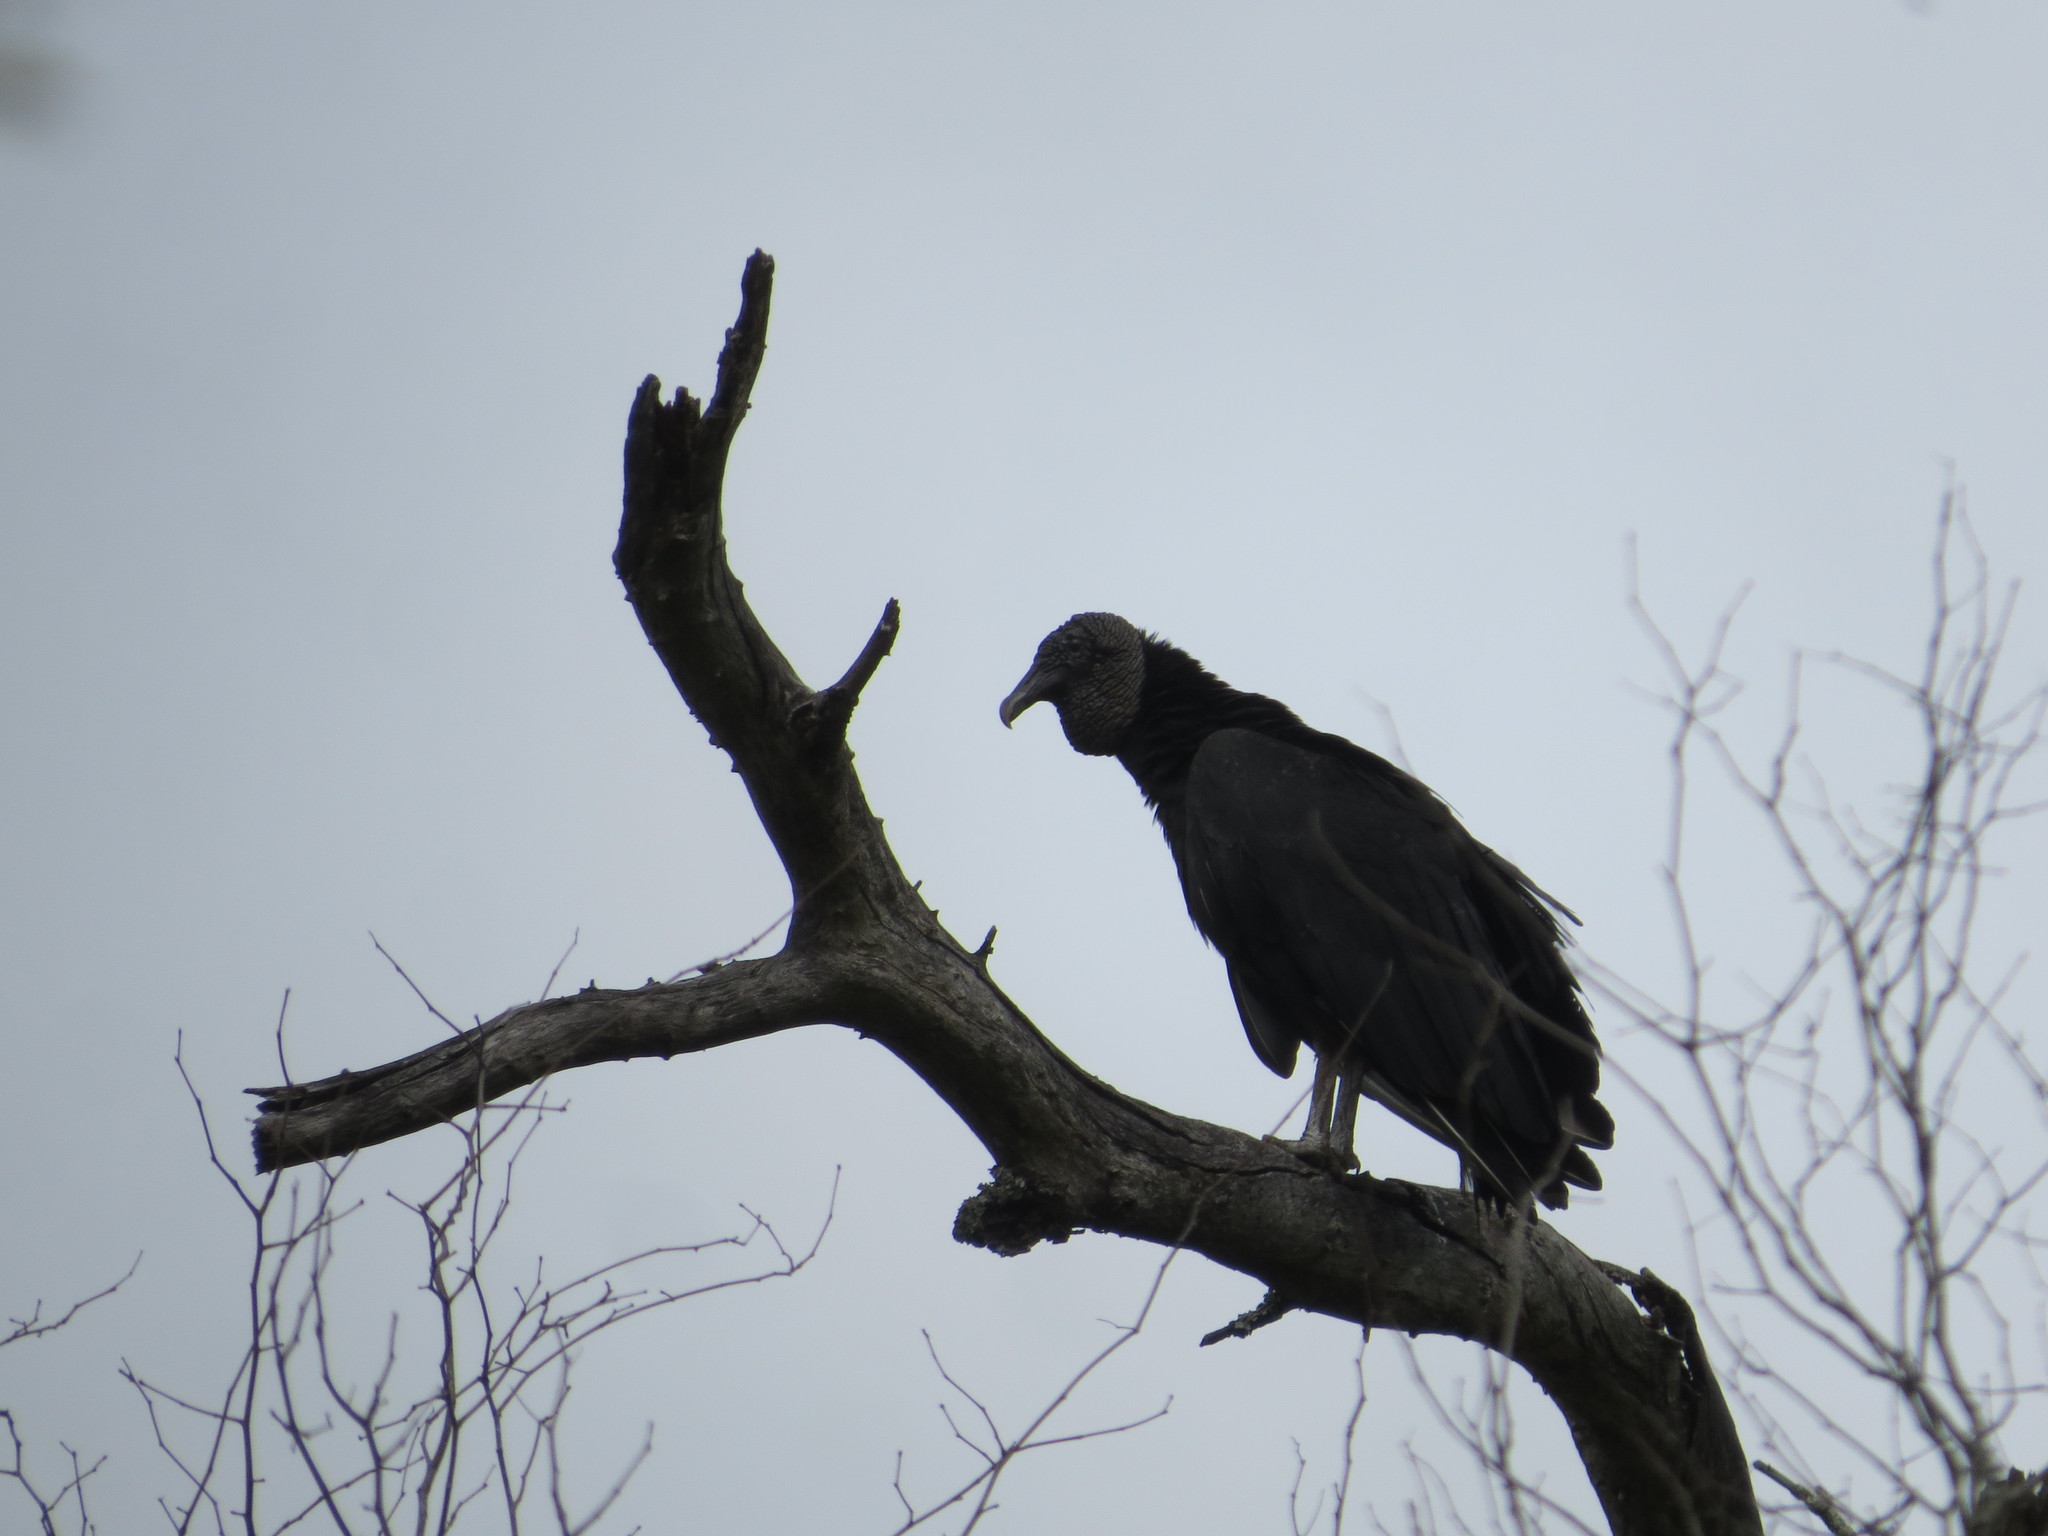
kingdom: Animalia
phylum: Chordata
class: Aves
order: Accipitriformes
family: Cathartidae
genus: Coragyps
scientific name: Coragyps atratus
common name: Black vulture
